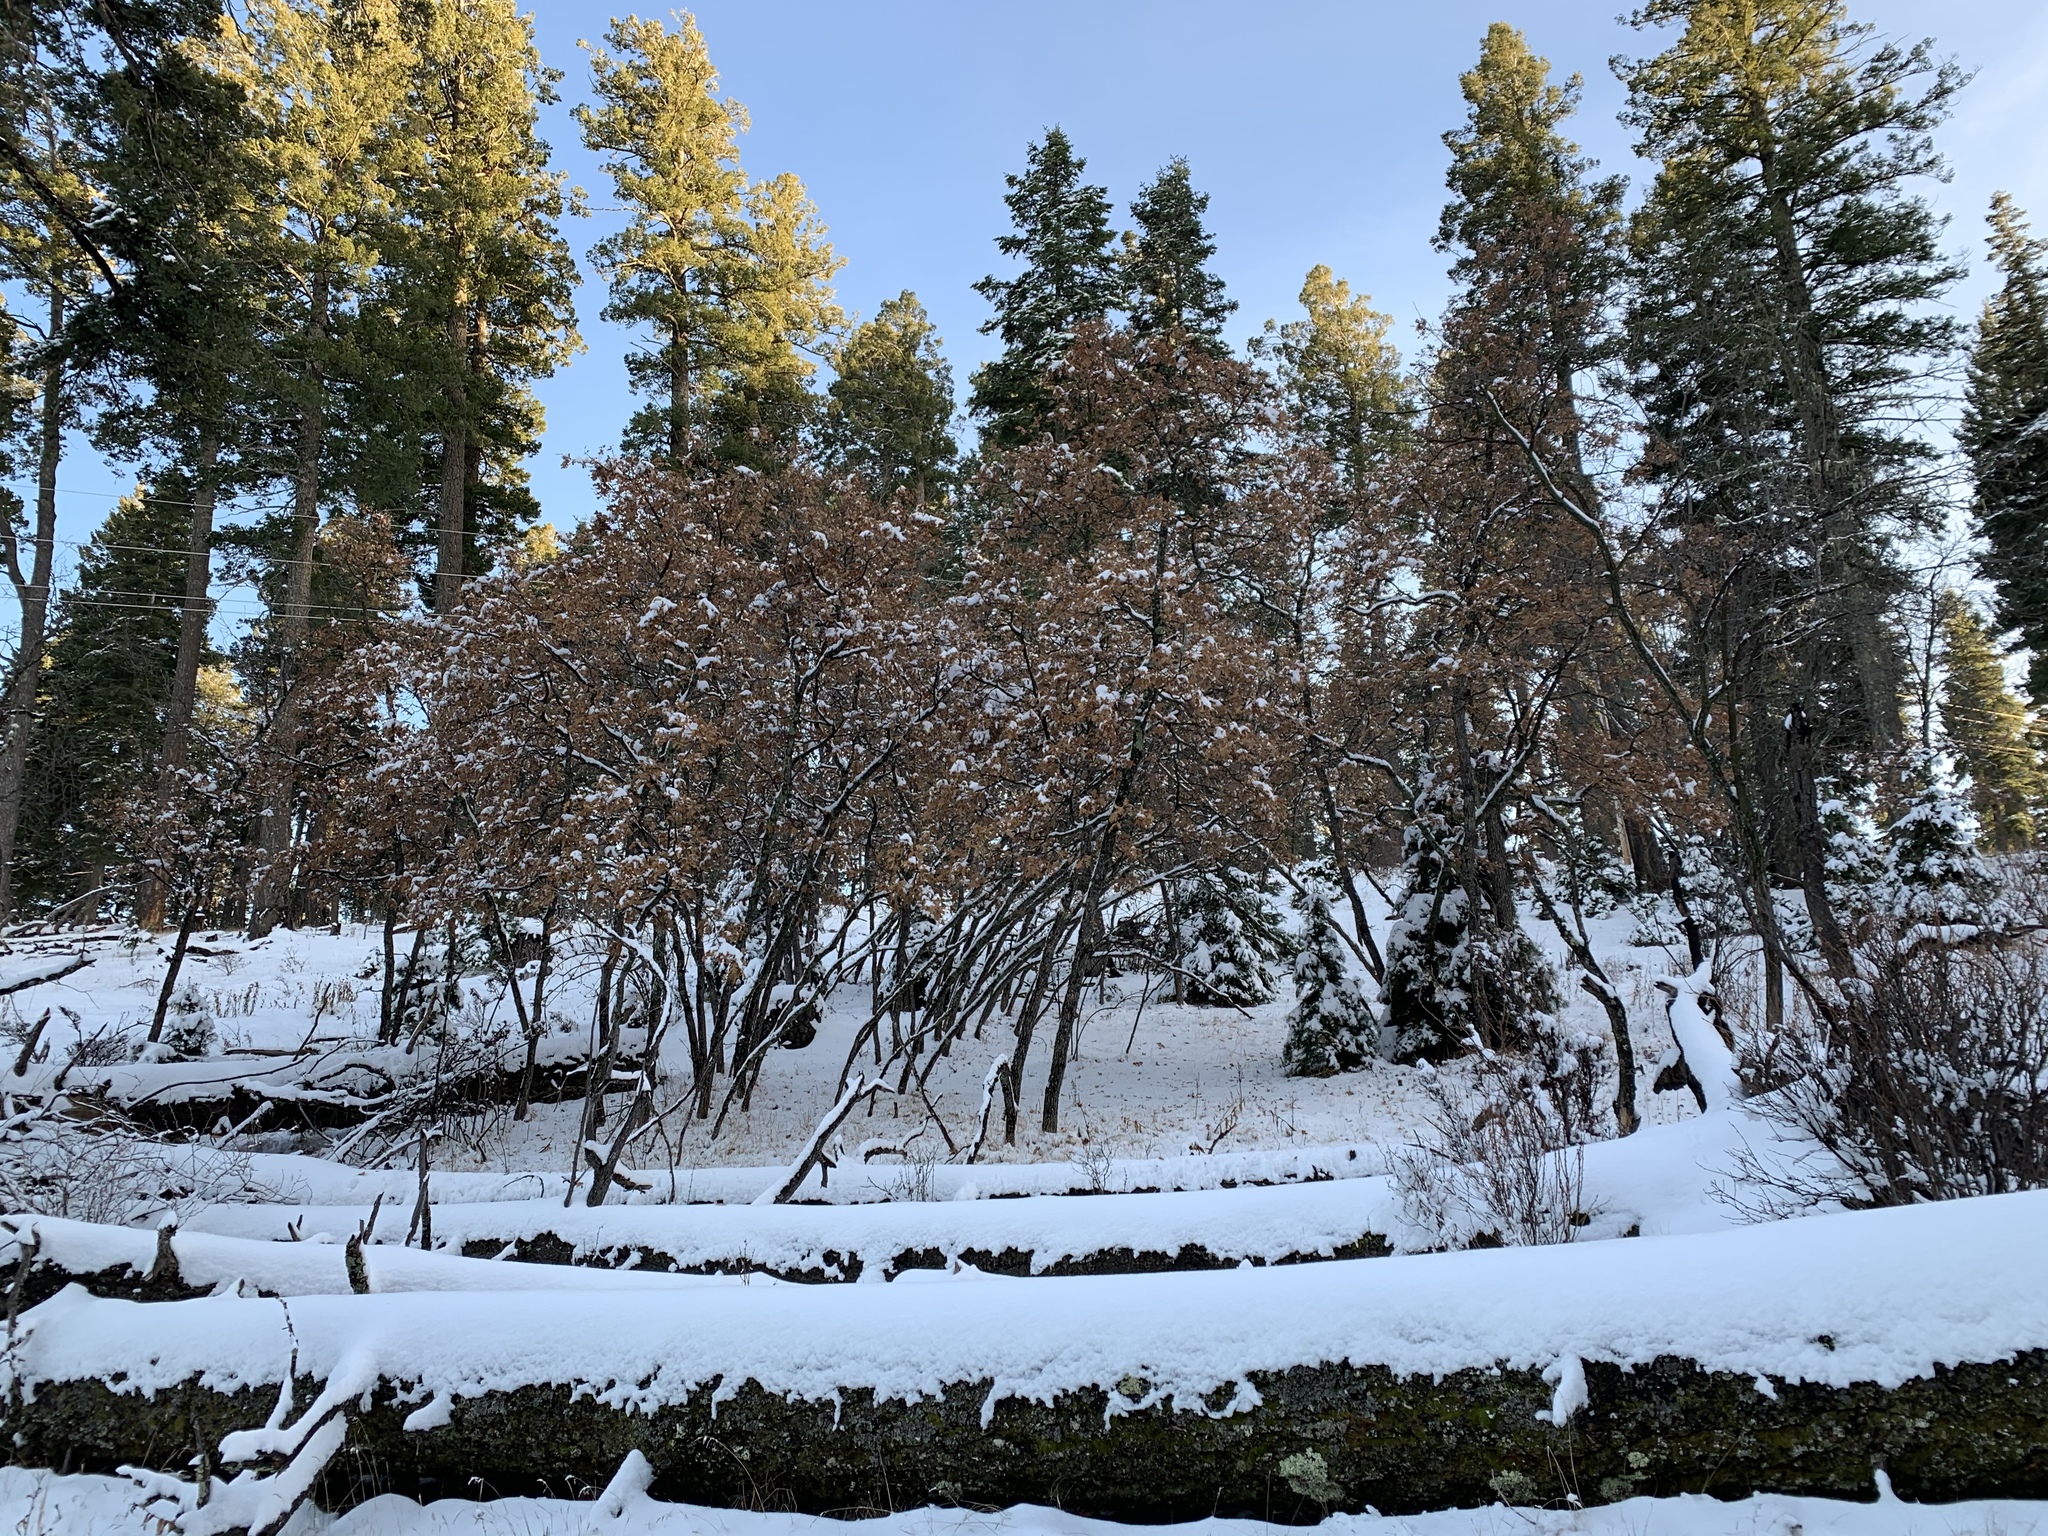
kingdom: Plantae
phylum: Tracheophyta
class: Magnoliopsida
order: Fagales
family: Fagaceae
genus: Quercus
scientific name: Quercus gambelii
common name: Gambel oak
